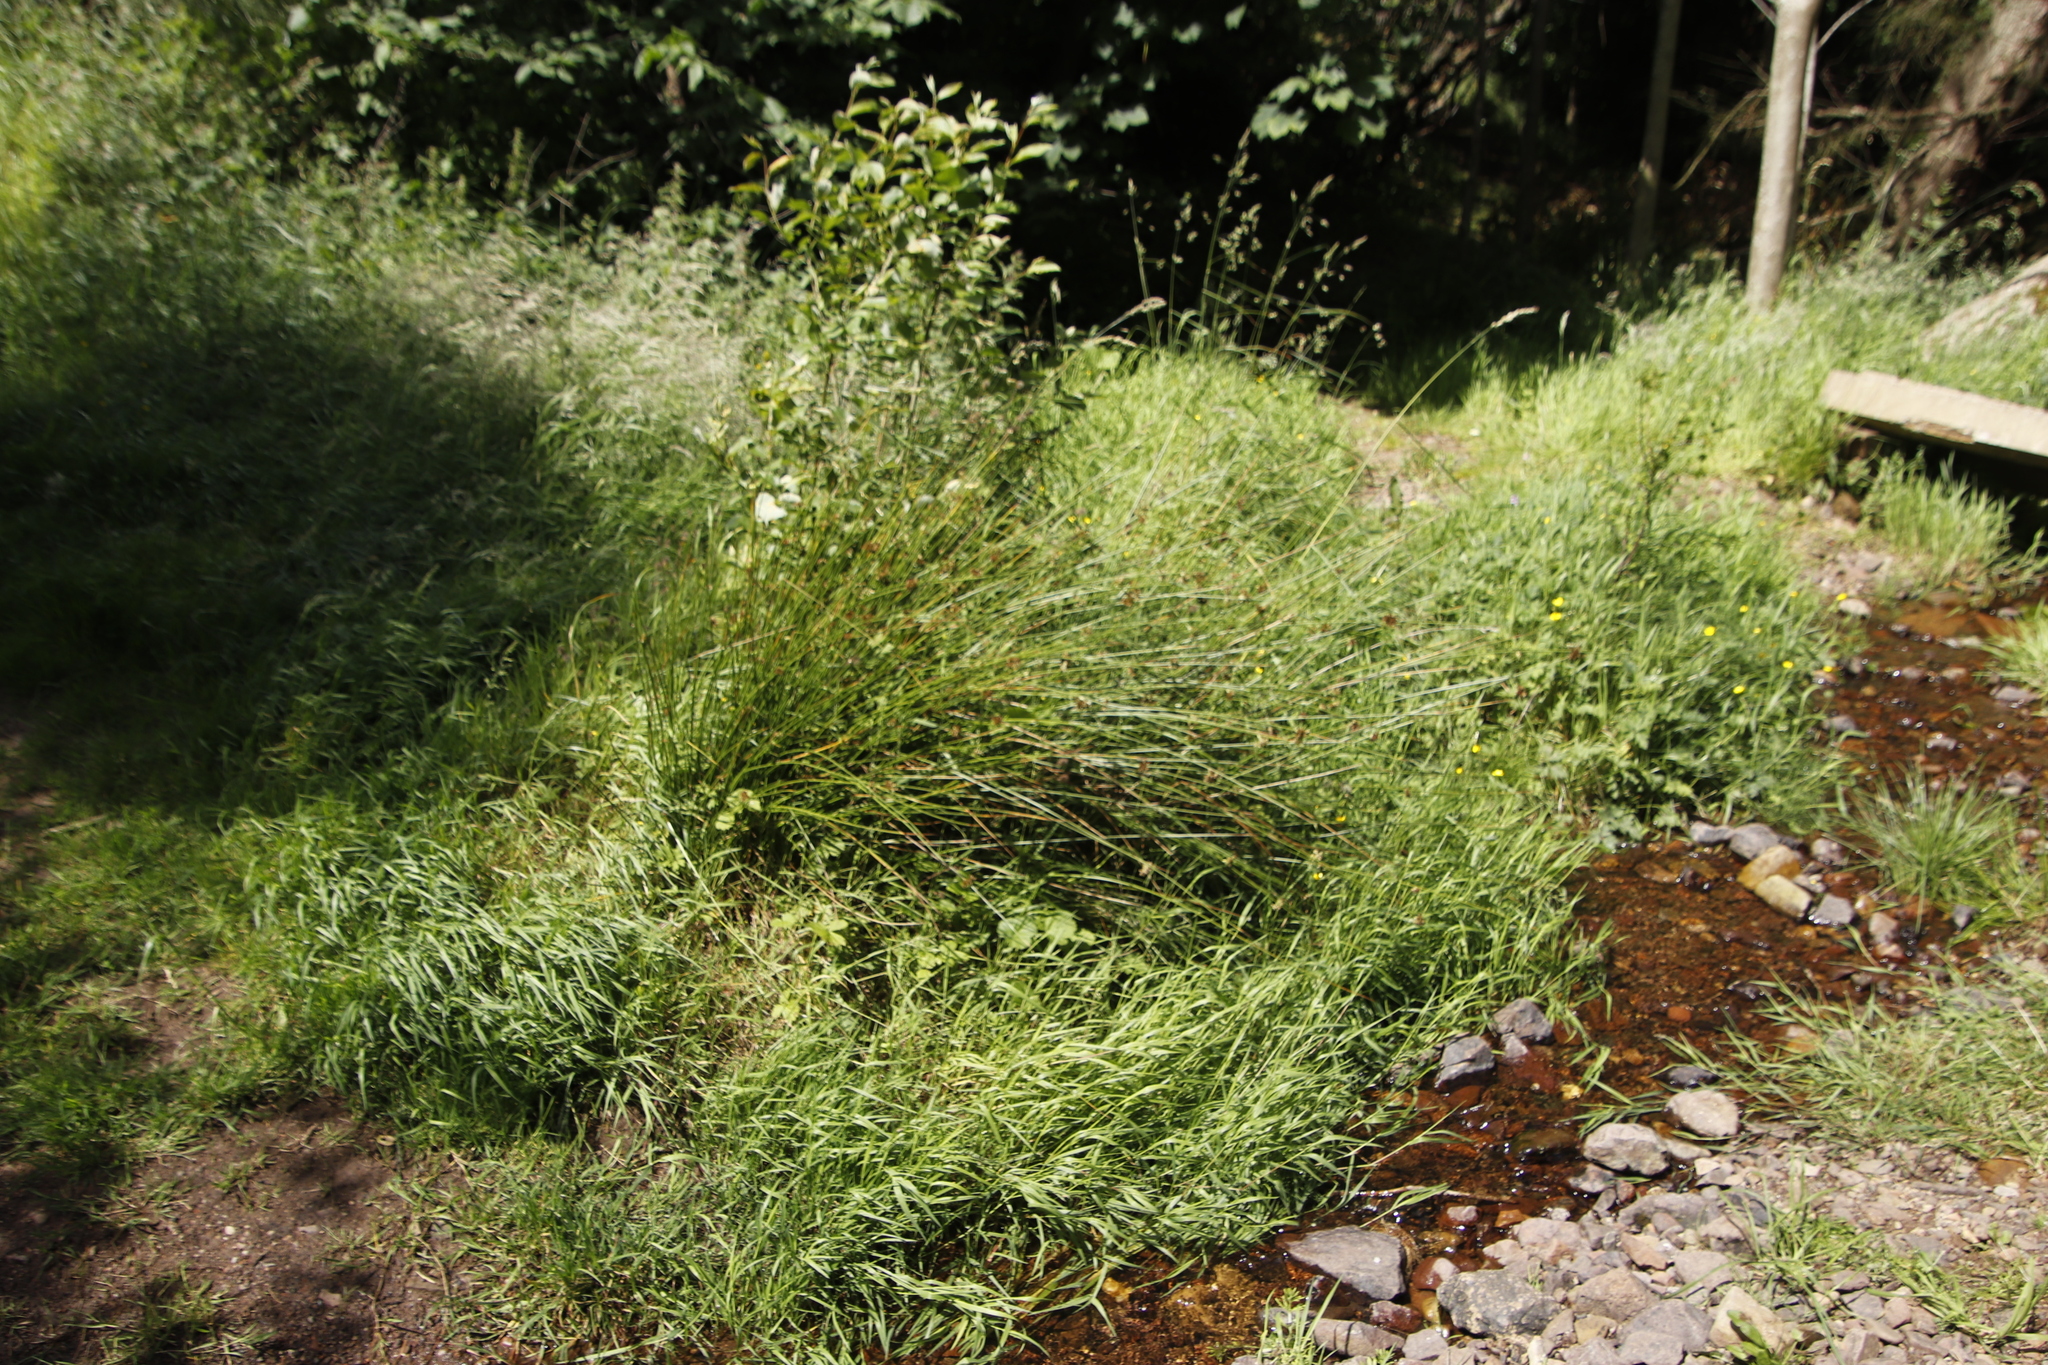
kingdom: Plantae
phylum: Tracheophyta
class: Liliopsida
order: Poales
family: Juncaceae
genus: Juncus
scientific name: Juncus effusus
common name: Soft rush
